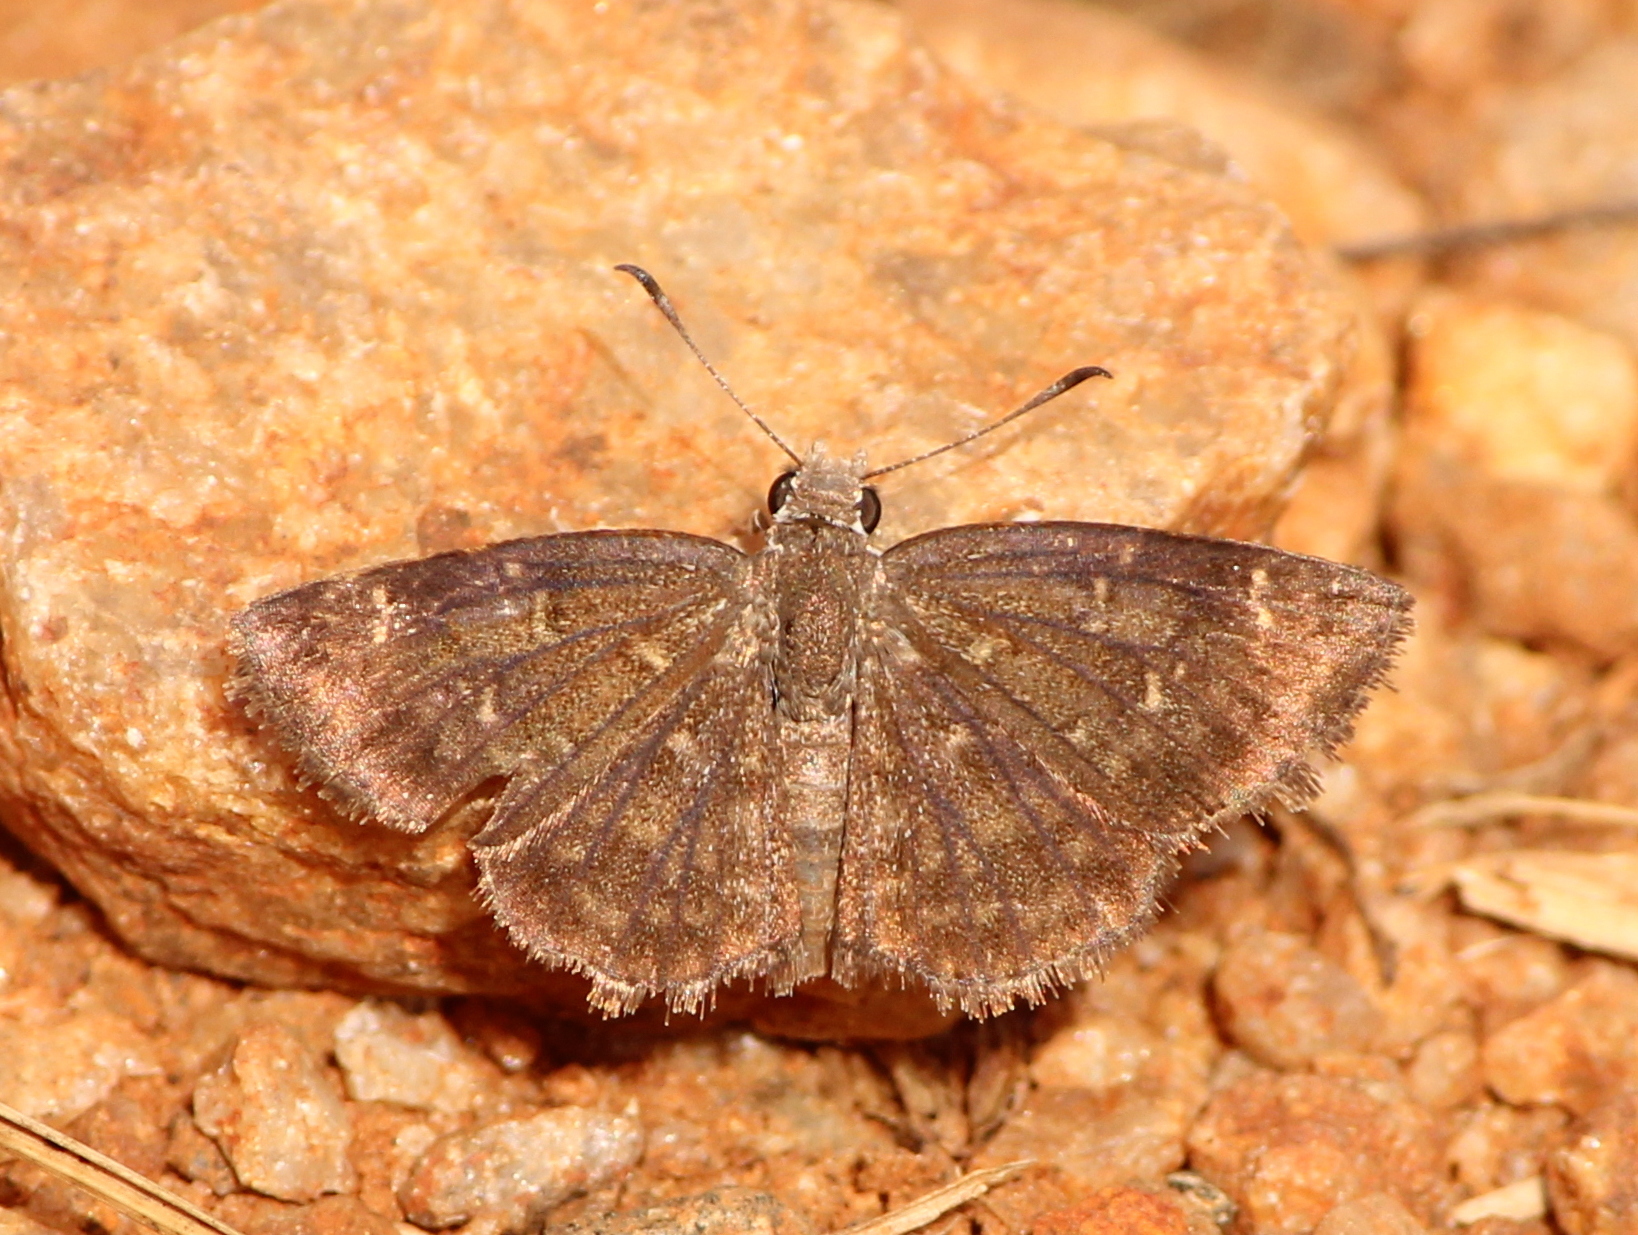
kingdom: Animalia
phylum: Arthropoda
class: Insecta
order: Lepidoptera
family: Hesperiidae
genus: Sarangesa
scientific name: Sarangesa purendra
